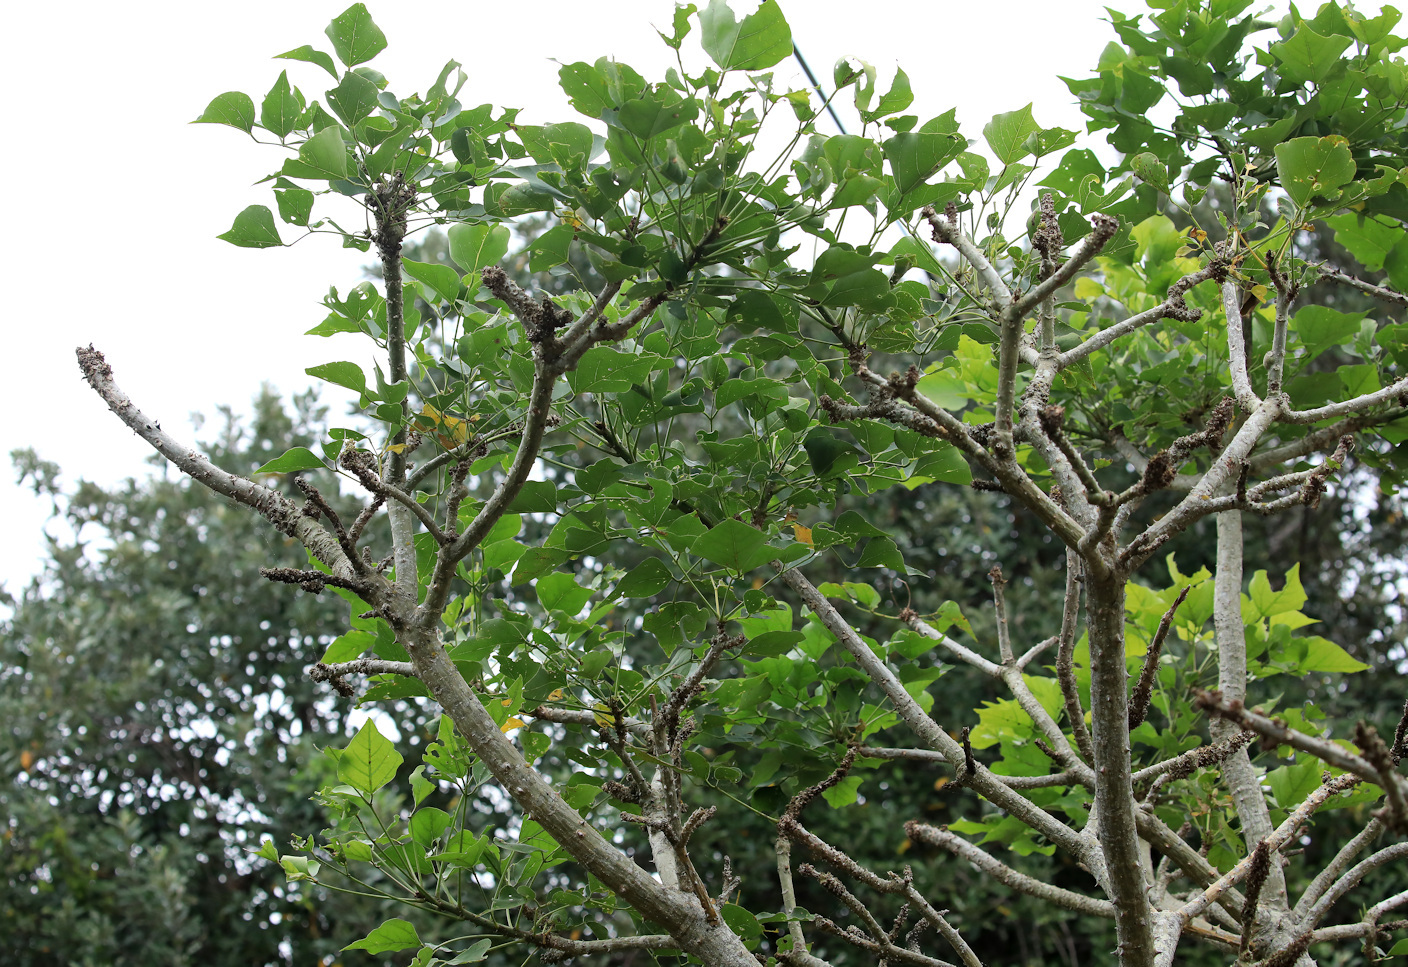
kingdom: Plantae
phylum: Tracheophyta
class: Magnoliopsida
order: Fabales
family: Fabaceae
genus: Erythrina
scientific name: Erythrina caffra
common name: Coast coral tree
